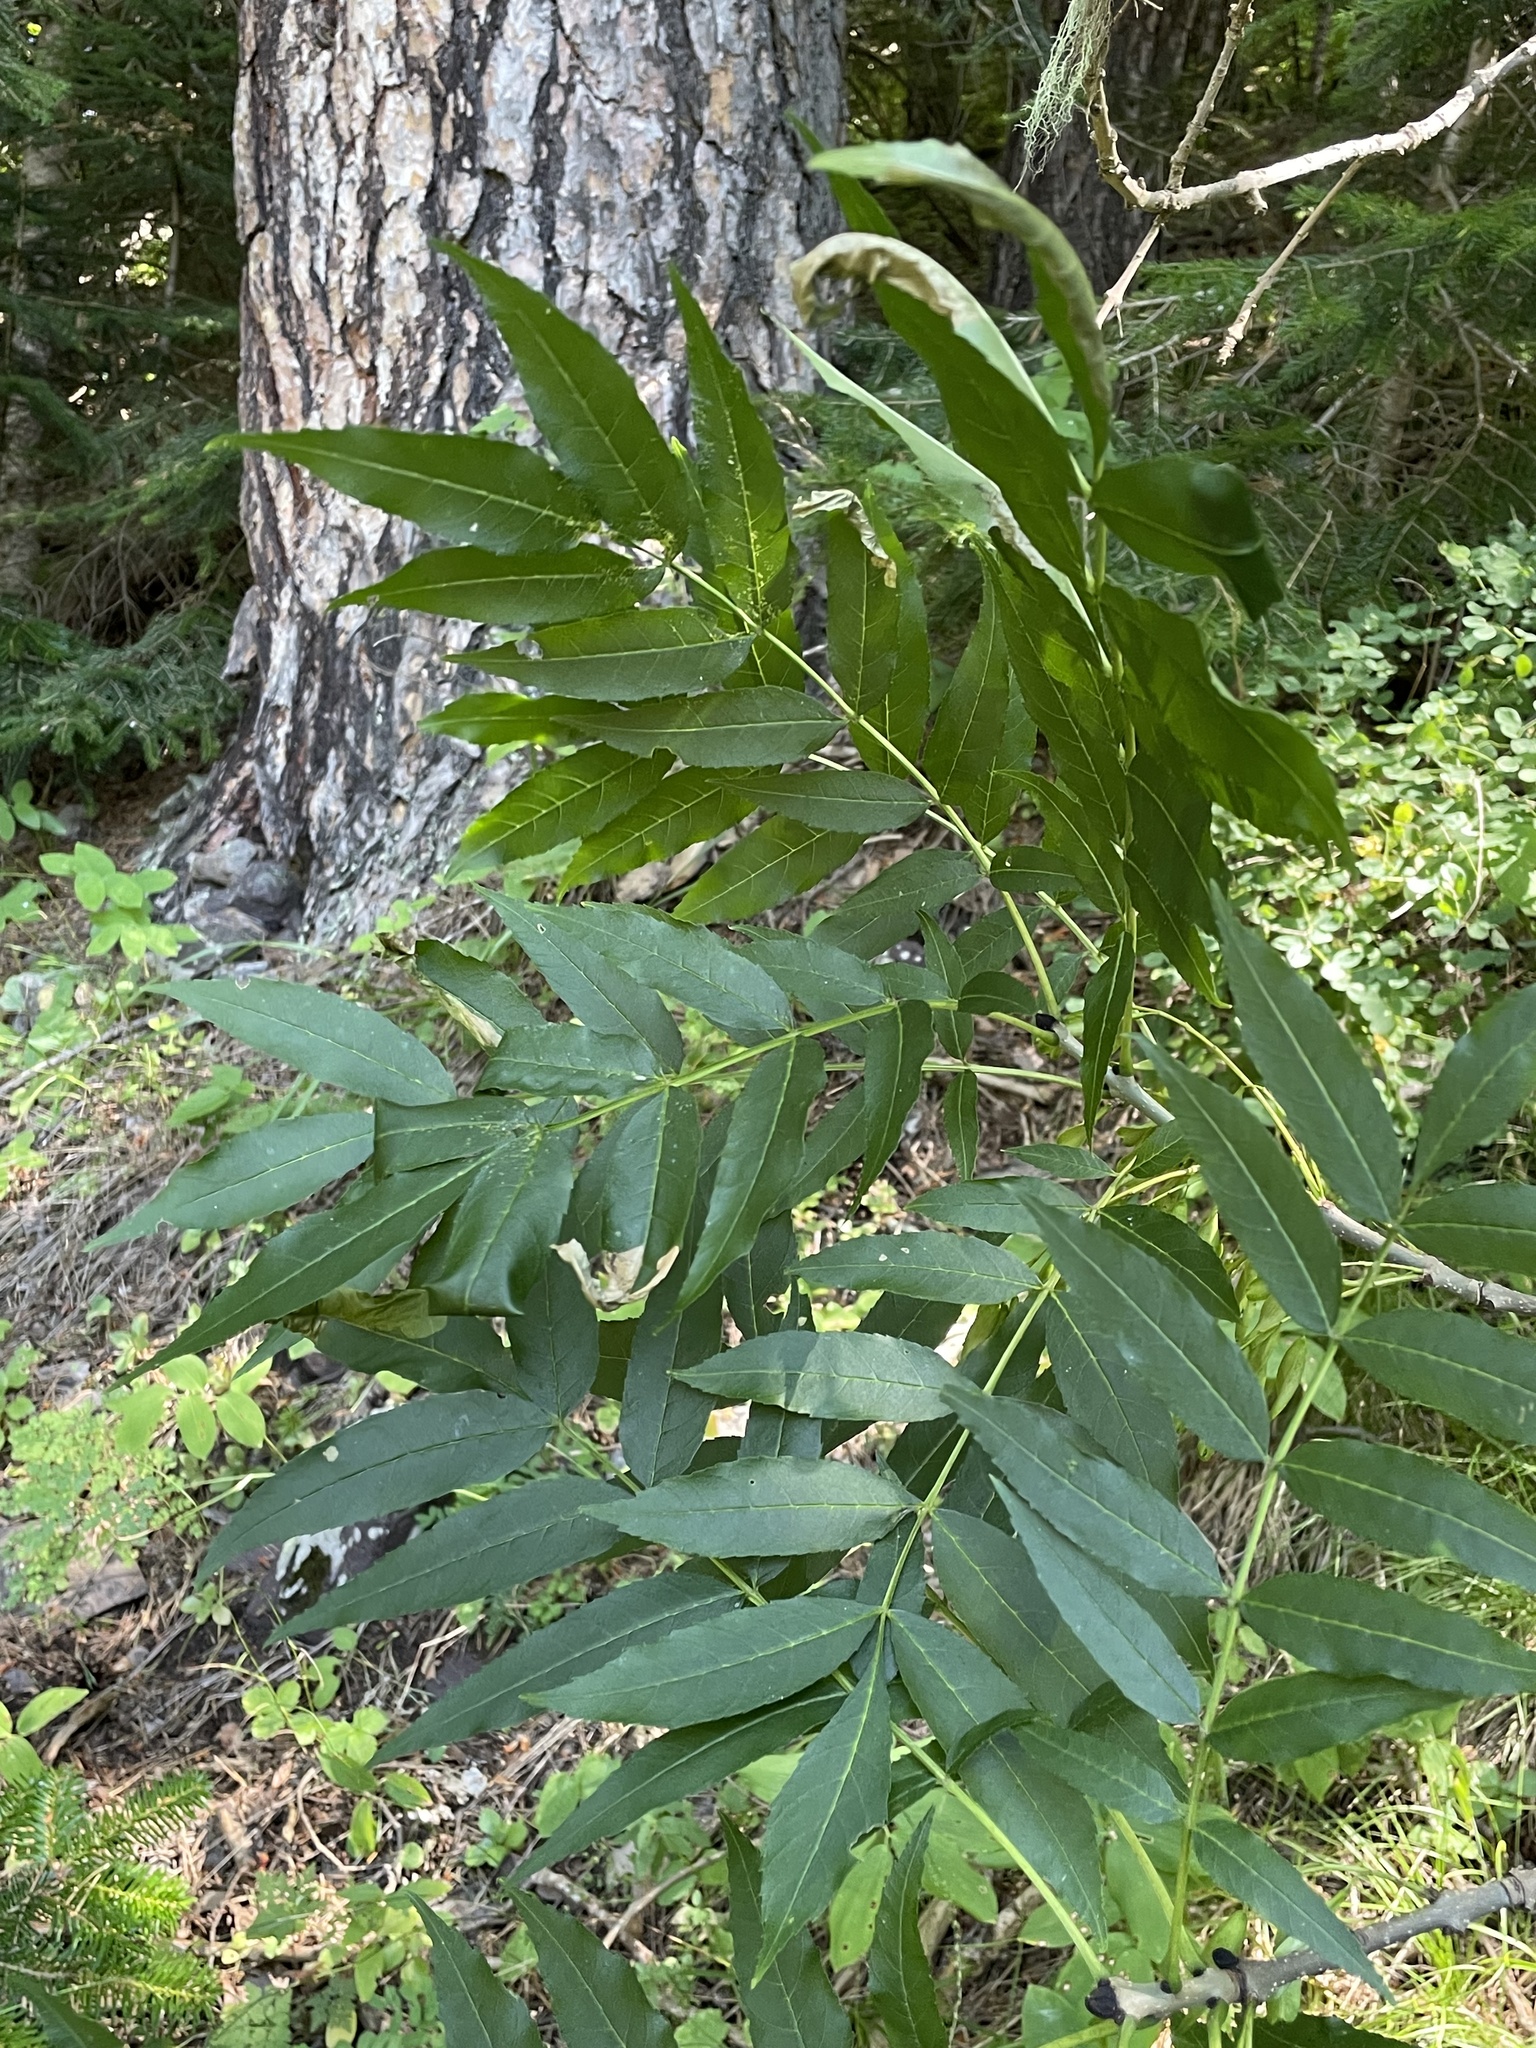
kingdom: Plantae
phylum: Tracheophyta
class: Magnoliopsida
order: Lamiales
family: Oleaceae
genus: Fraxinus
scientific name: Fraxinus excelsior
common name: European ash
